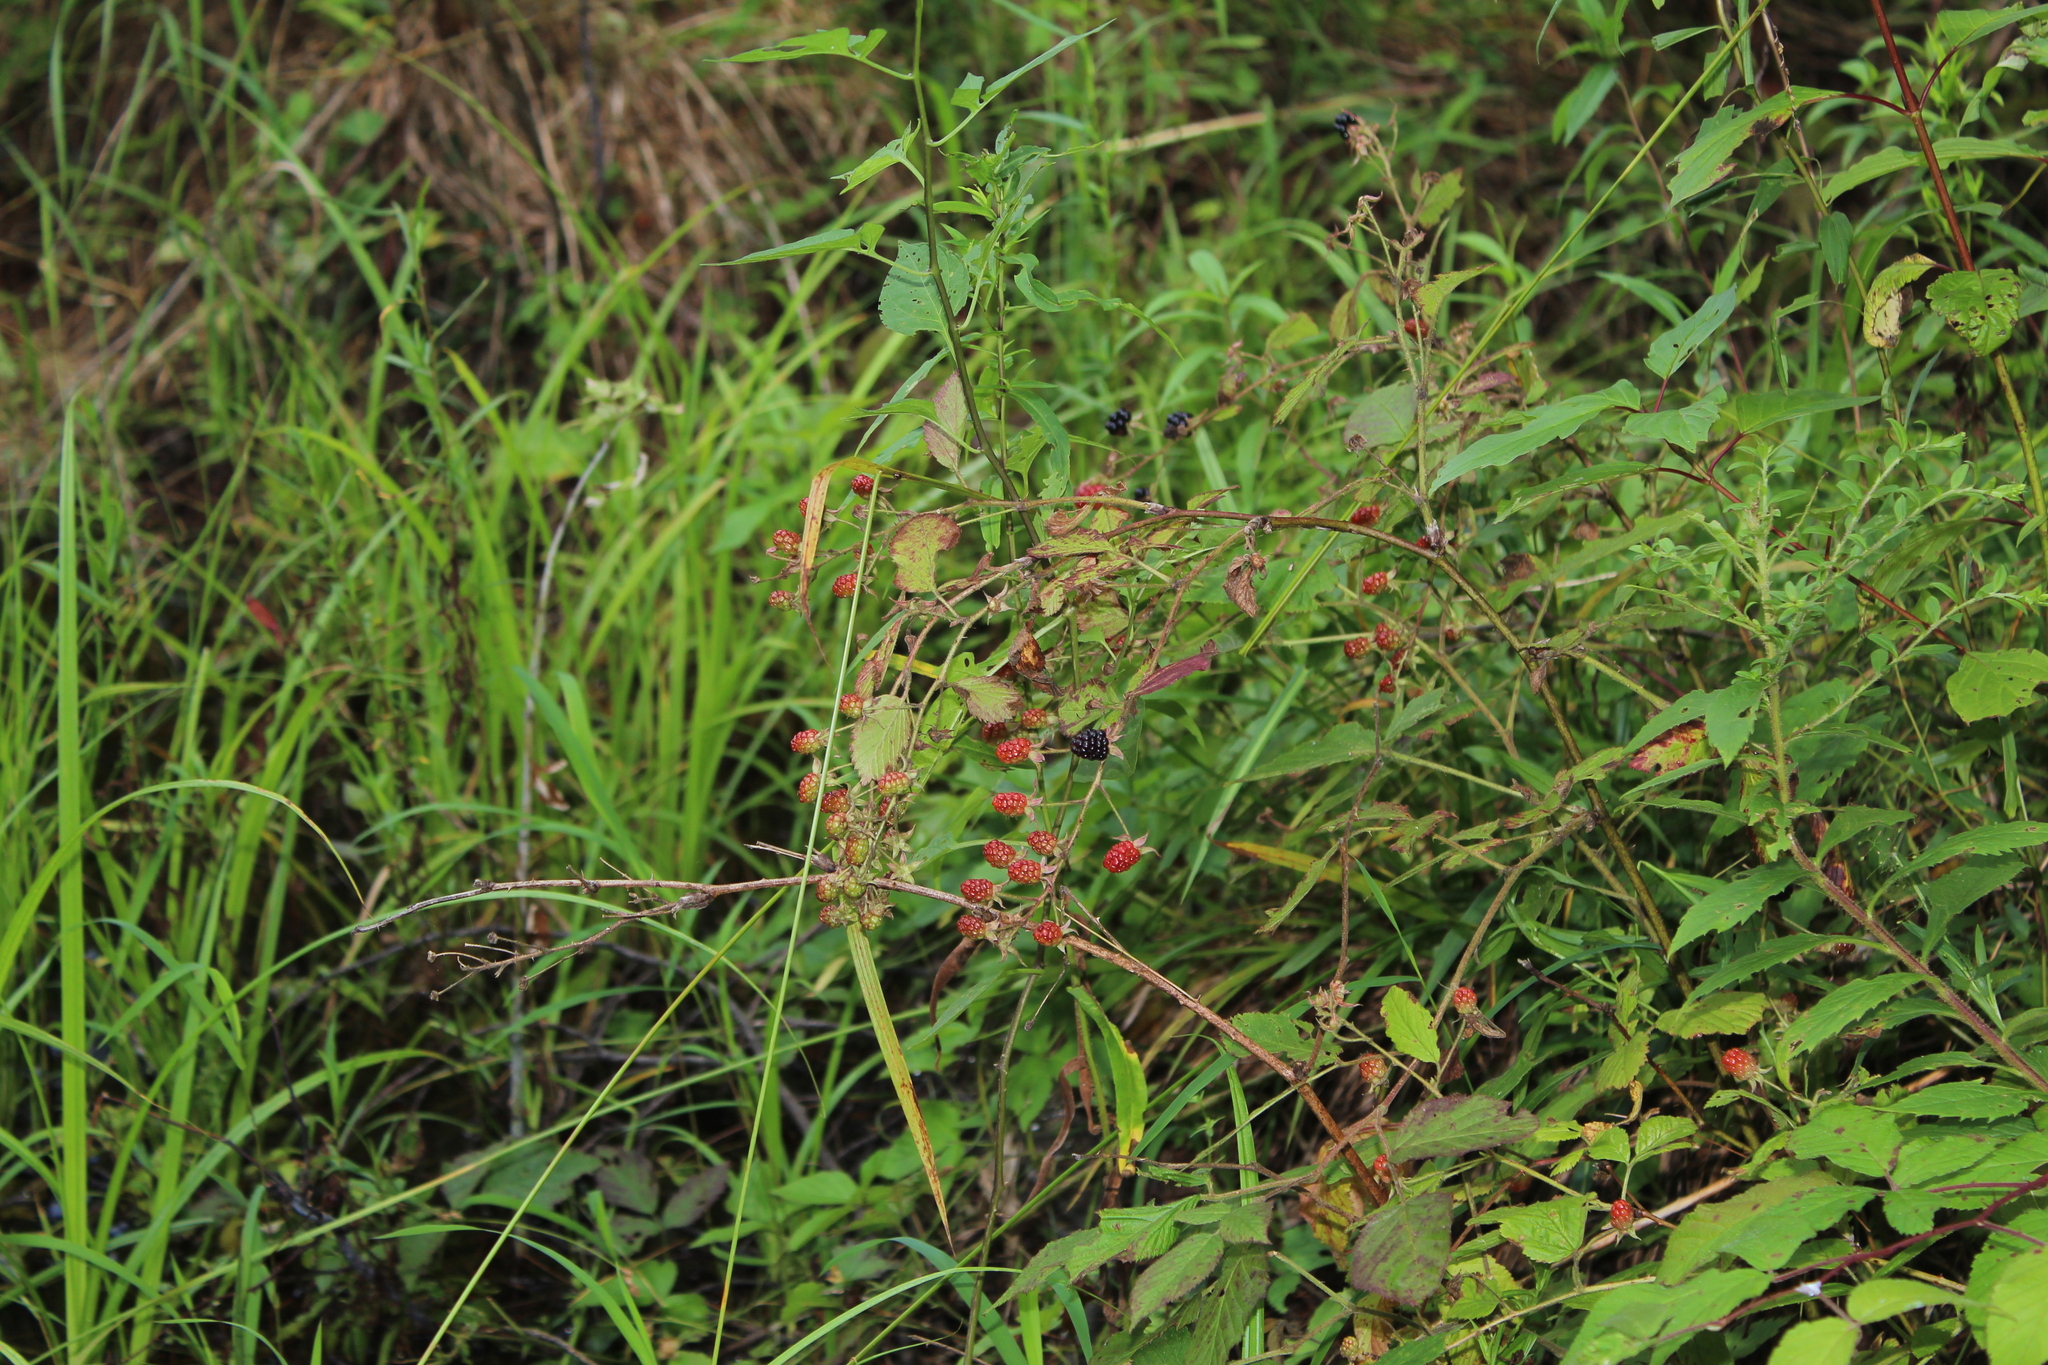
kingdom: Plantae
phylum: Tracheophyta
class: Magnoliopsida
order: Rosales
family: Rosaceae
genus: Rubus
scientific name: Rubus
